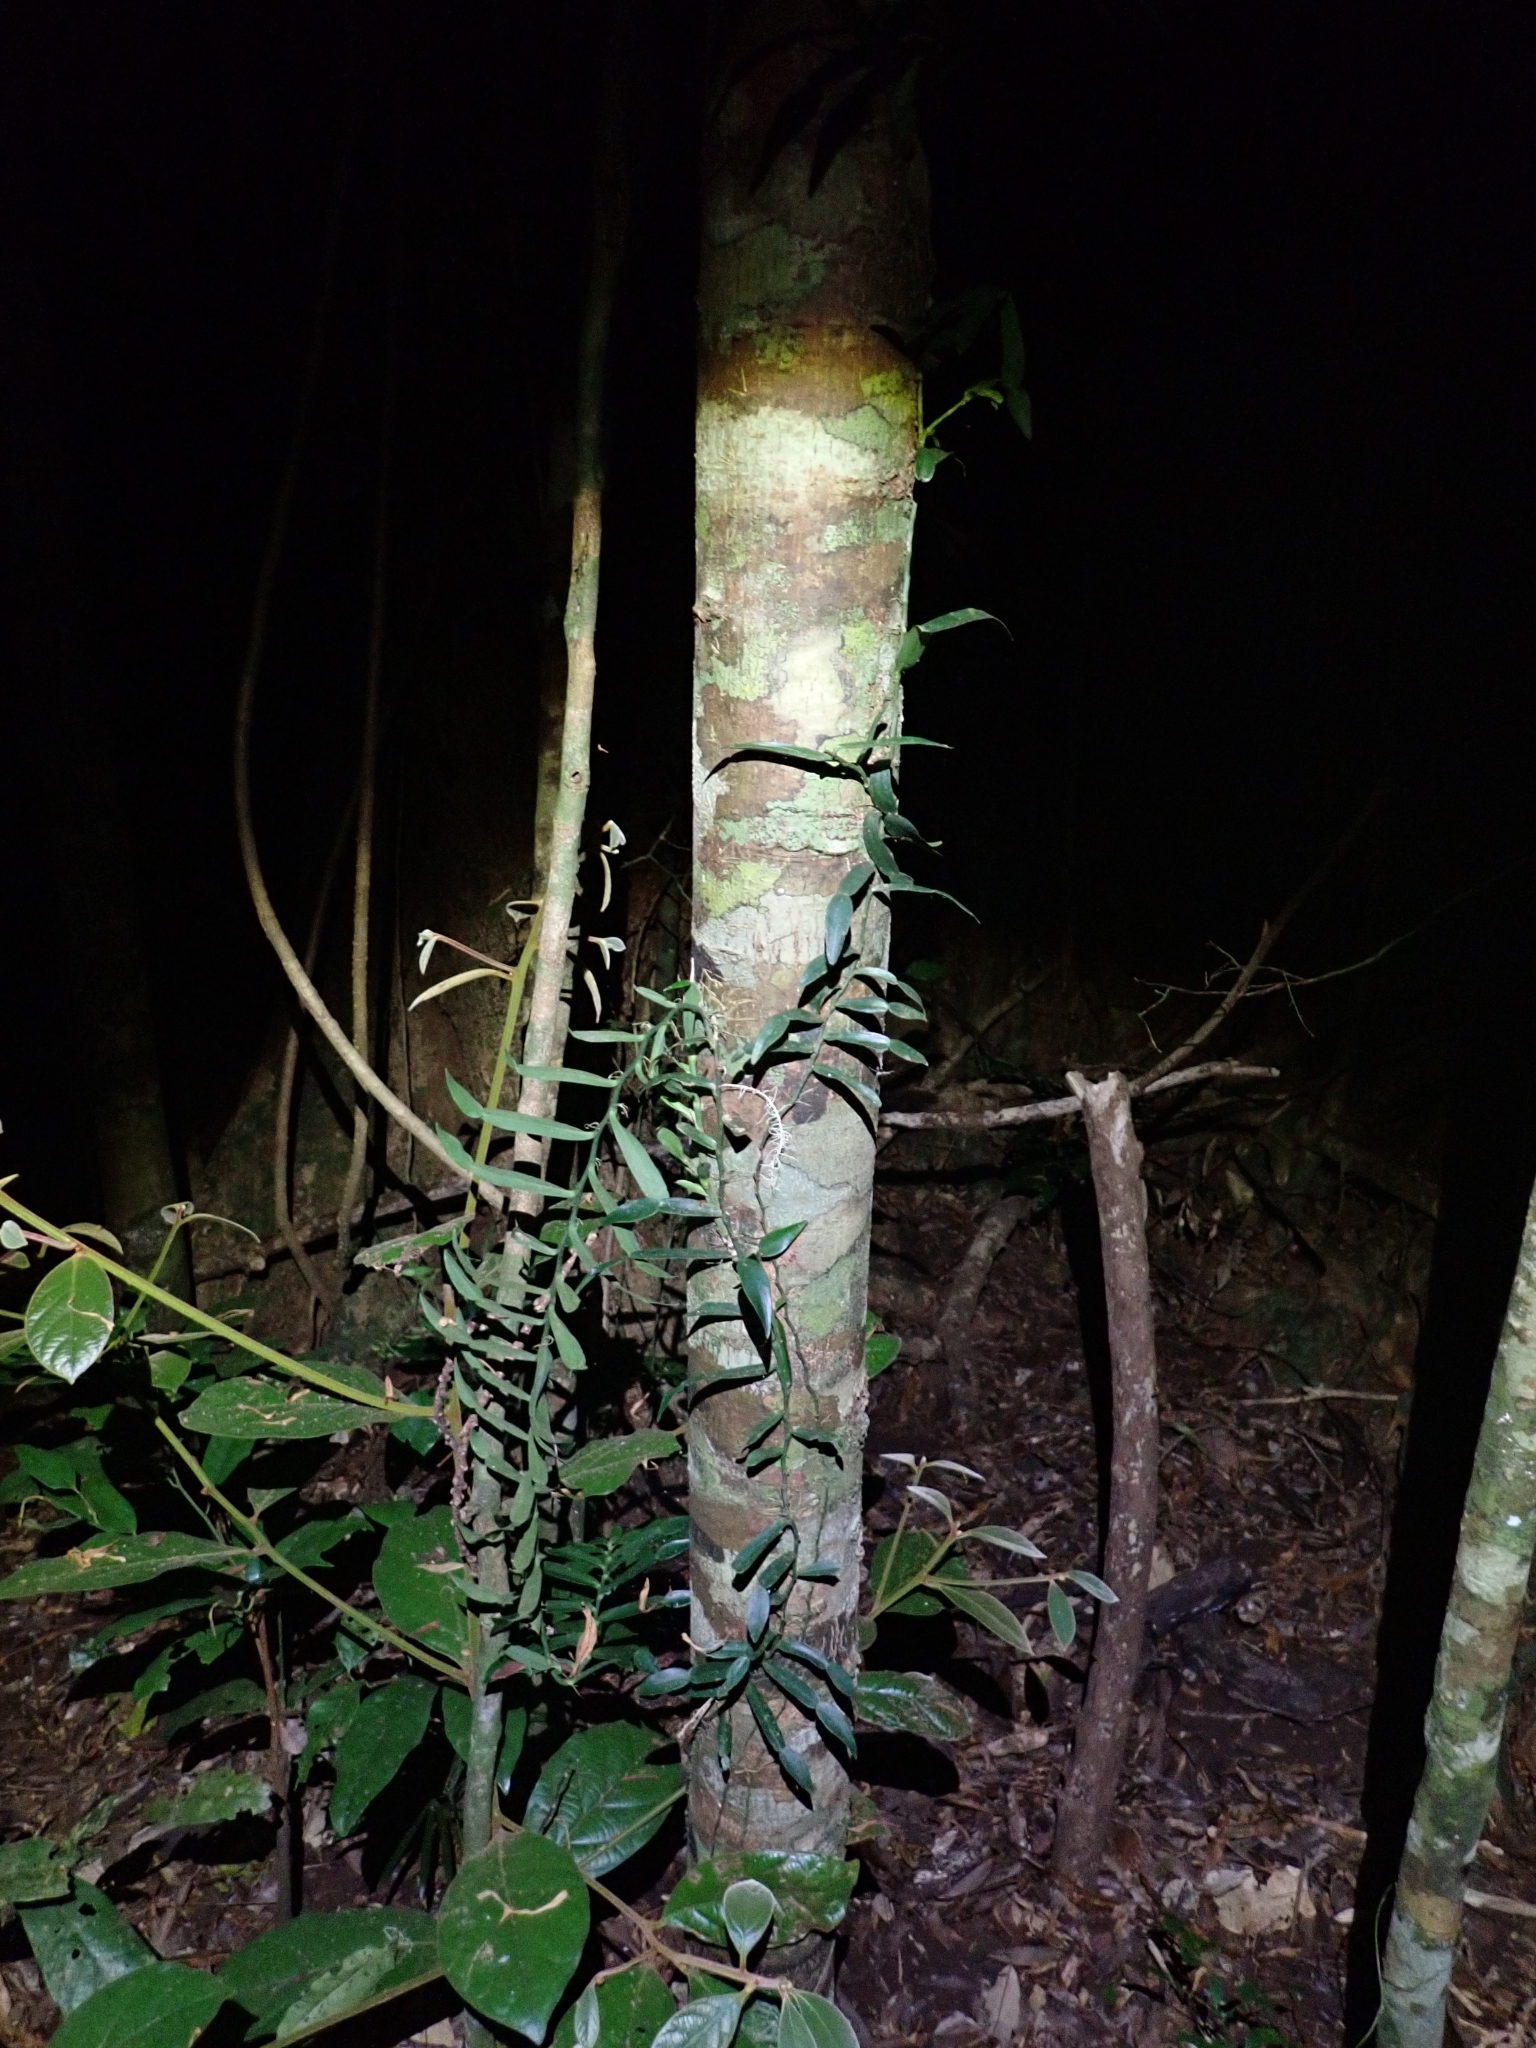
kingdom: Plantae
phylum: Tracheophyta
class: Liliopsida
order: Alismatales
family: Araceae
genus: Pothos
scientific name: Pothos longipes
